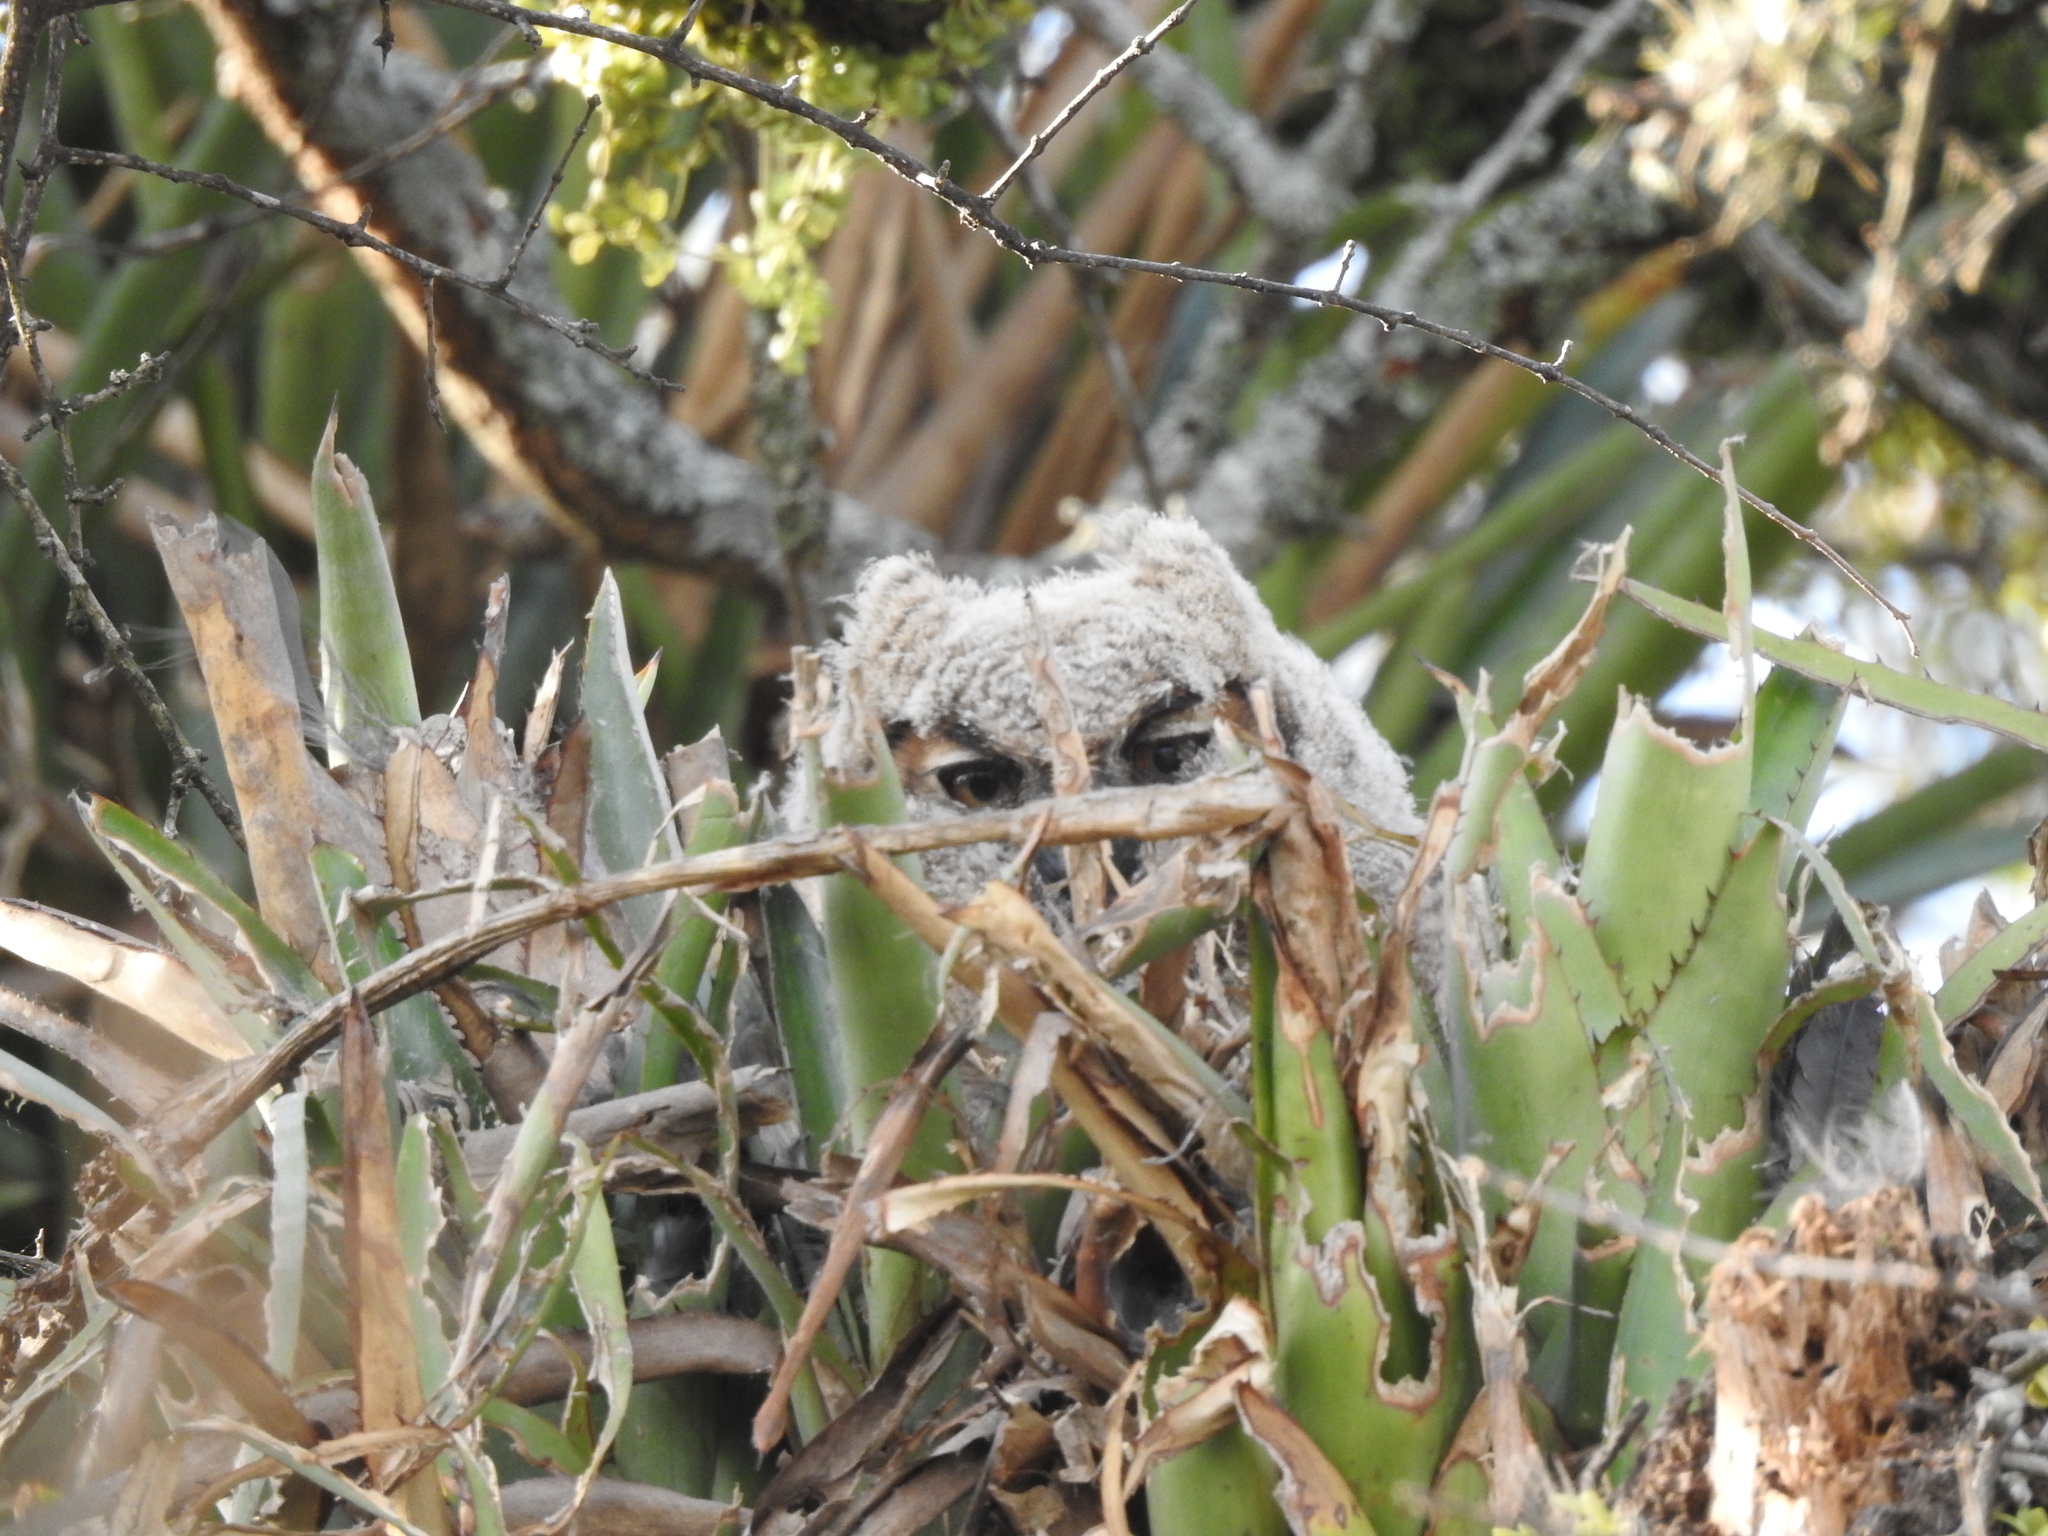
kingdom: Animalia
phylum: Chordata
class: Aves
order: Strigiformes
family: Strigidae
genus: Bubo
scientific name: Bubo virginianus
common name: Great horned owl
